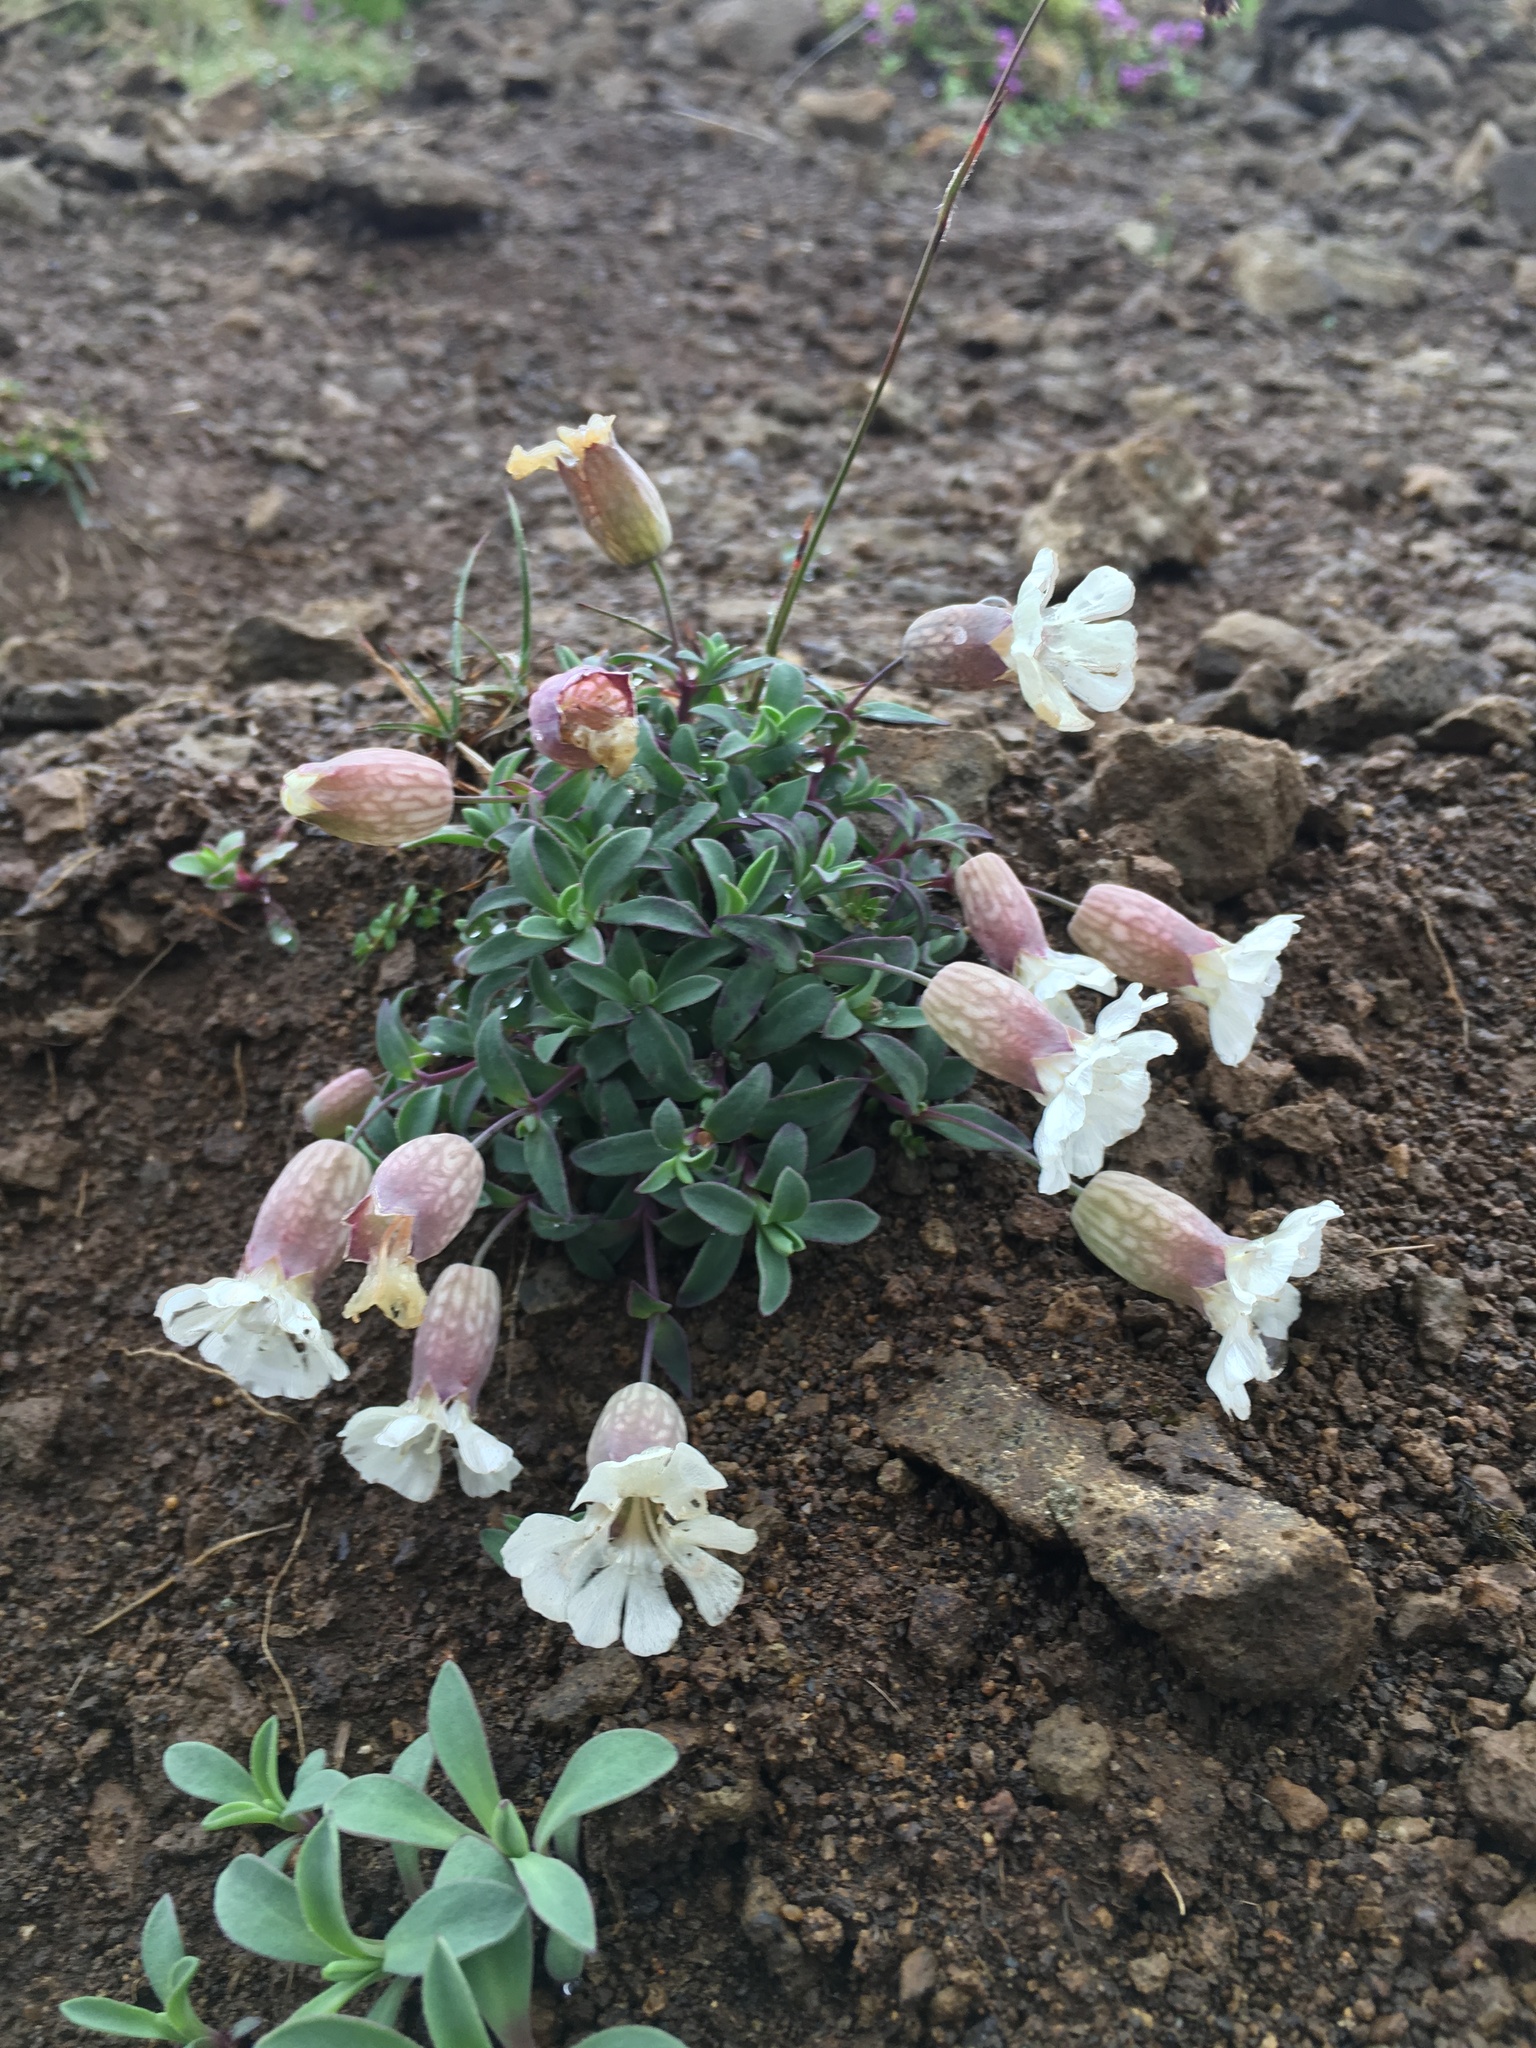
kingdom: Plantae
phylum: Tracheophyta
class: Magnoliopsida
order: Caryophyllales
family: Caryophyllaceae
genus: Silene
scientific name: Silene uniflora
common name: Sea campion
